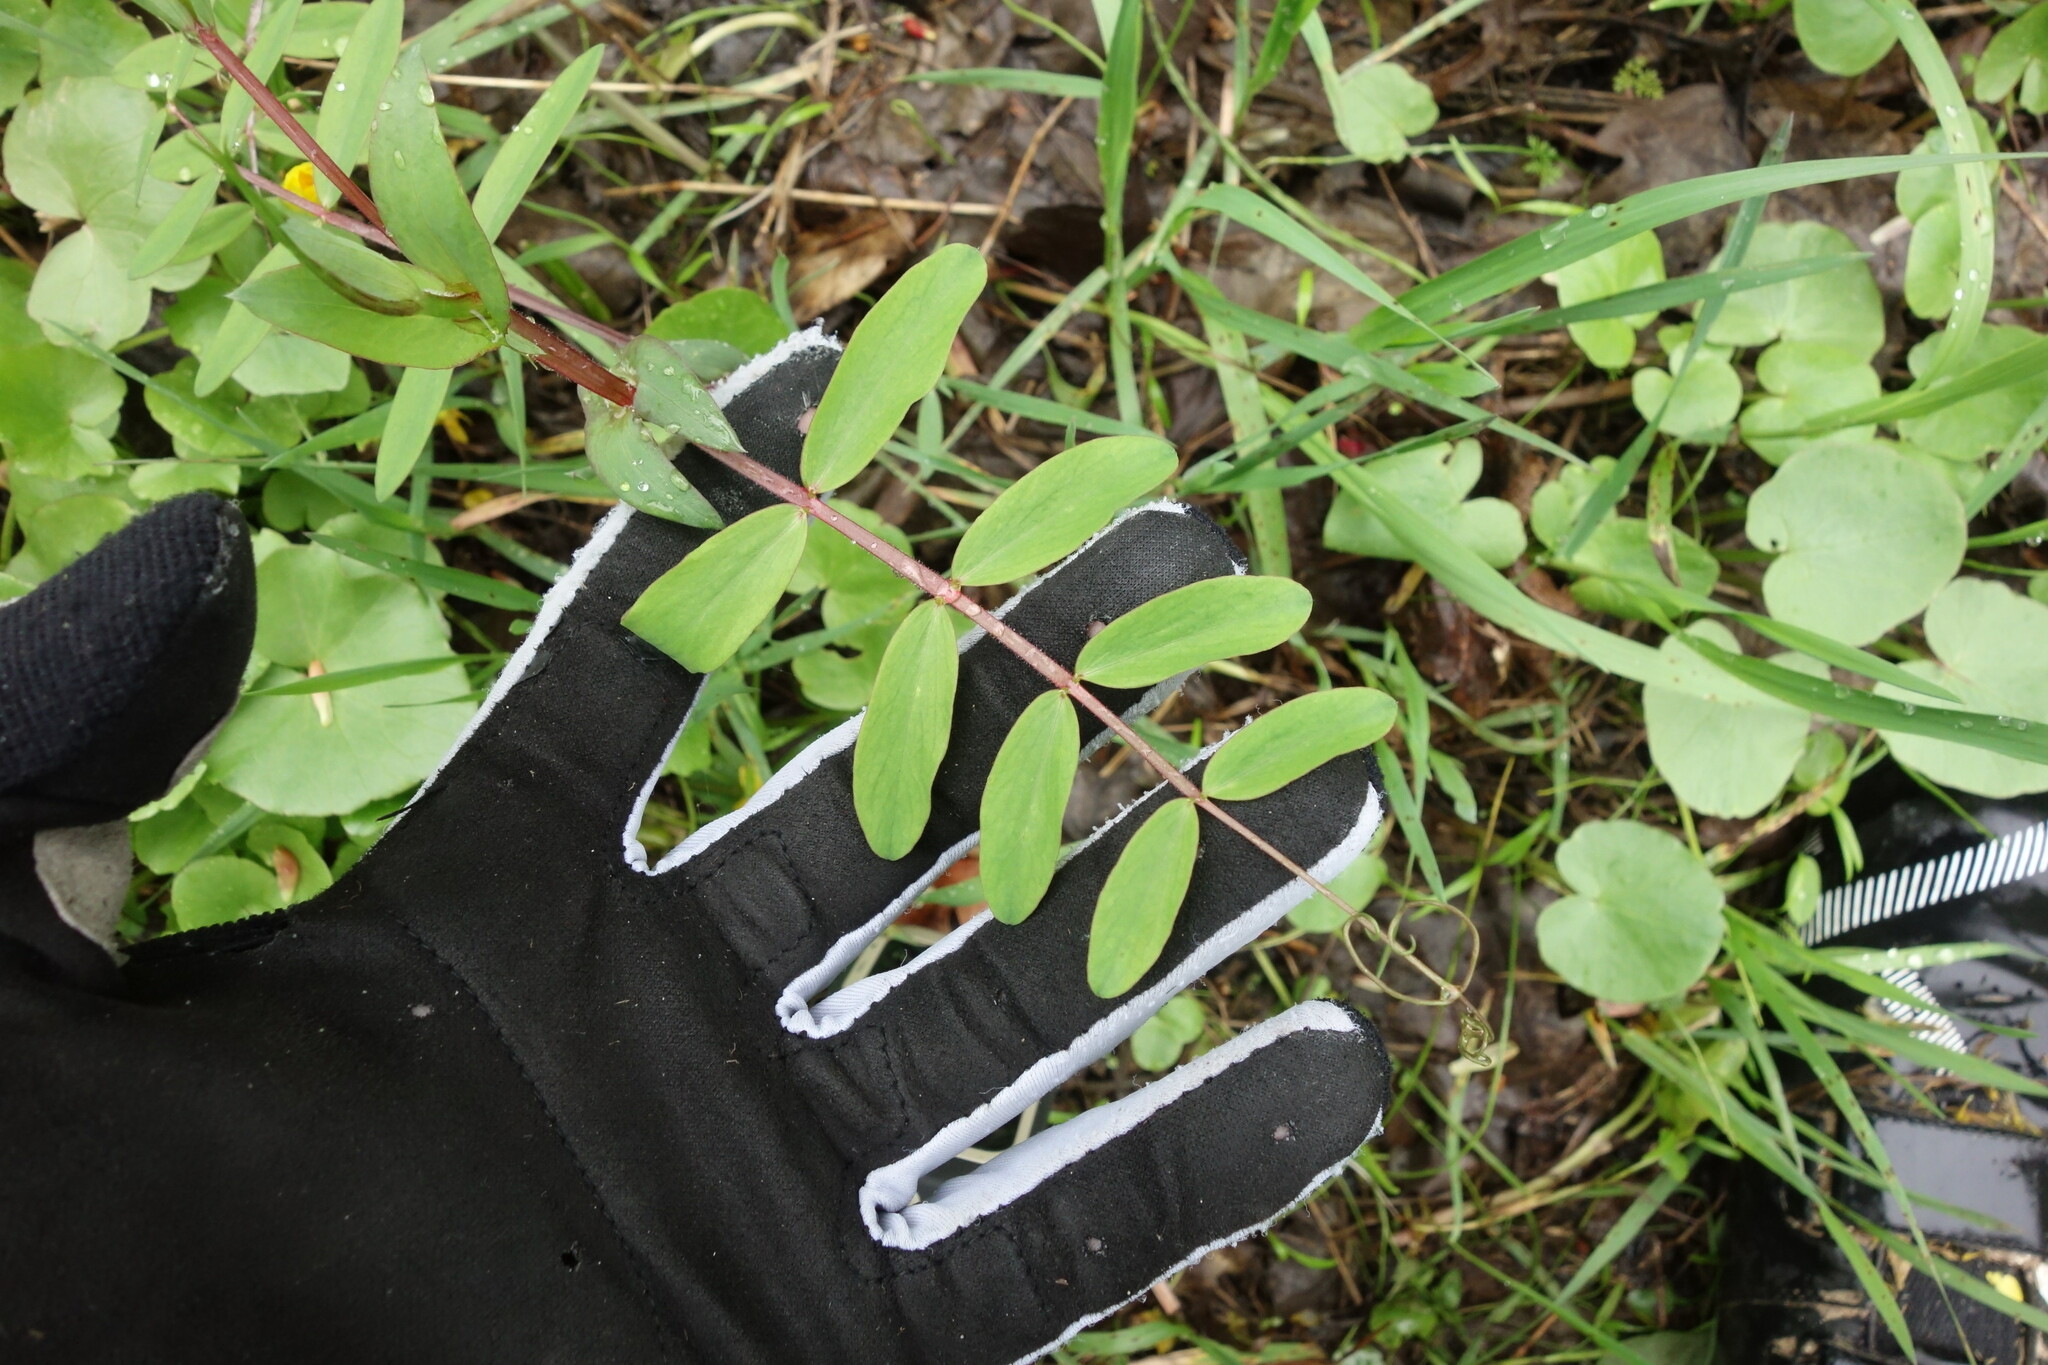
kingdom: Plantae
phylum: Tracheophyta
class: Magnoliopsida
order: Fabales
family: Fabaceae
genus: Lathyrus
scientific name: Lathyrus pisiformis
